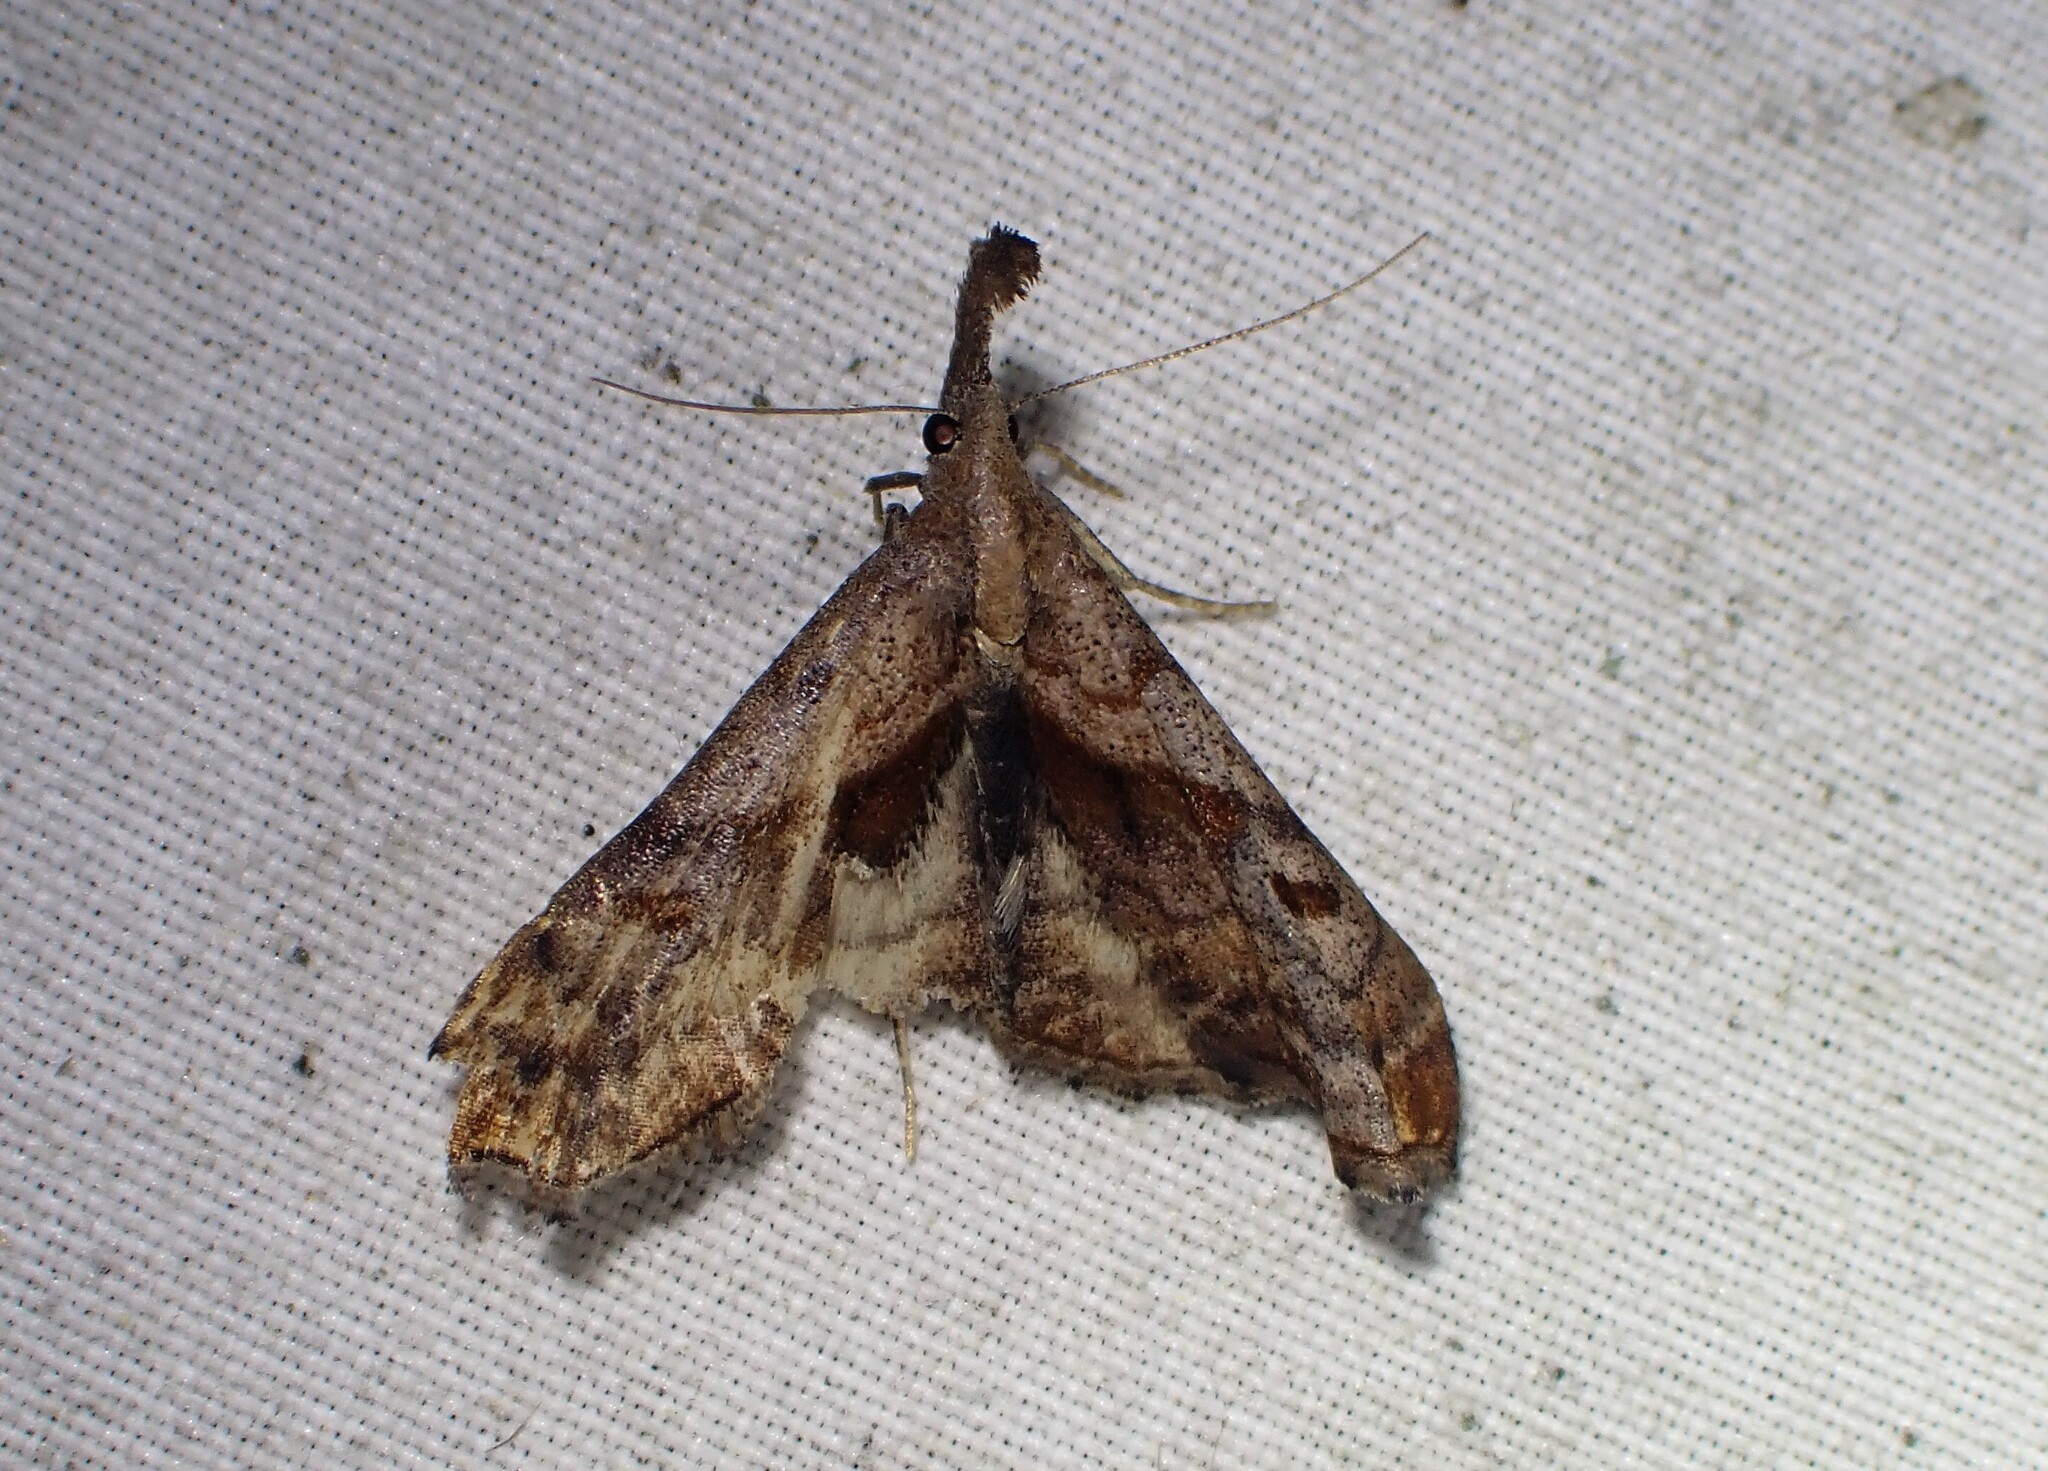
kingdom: Animalia
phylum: Arthropoda
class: Insecta
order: Lepidoptera
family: Erebidae
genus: Palthis
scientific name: Palthis angulalis
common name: Dark-spotted palthis moth
